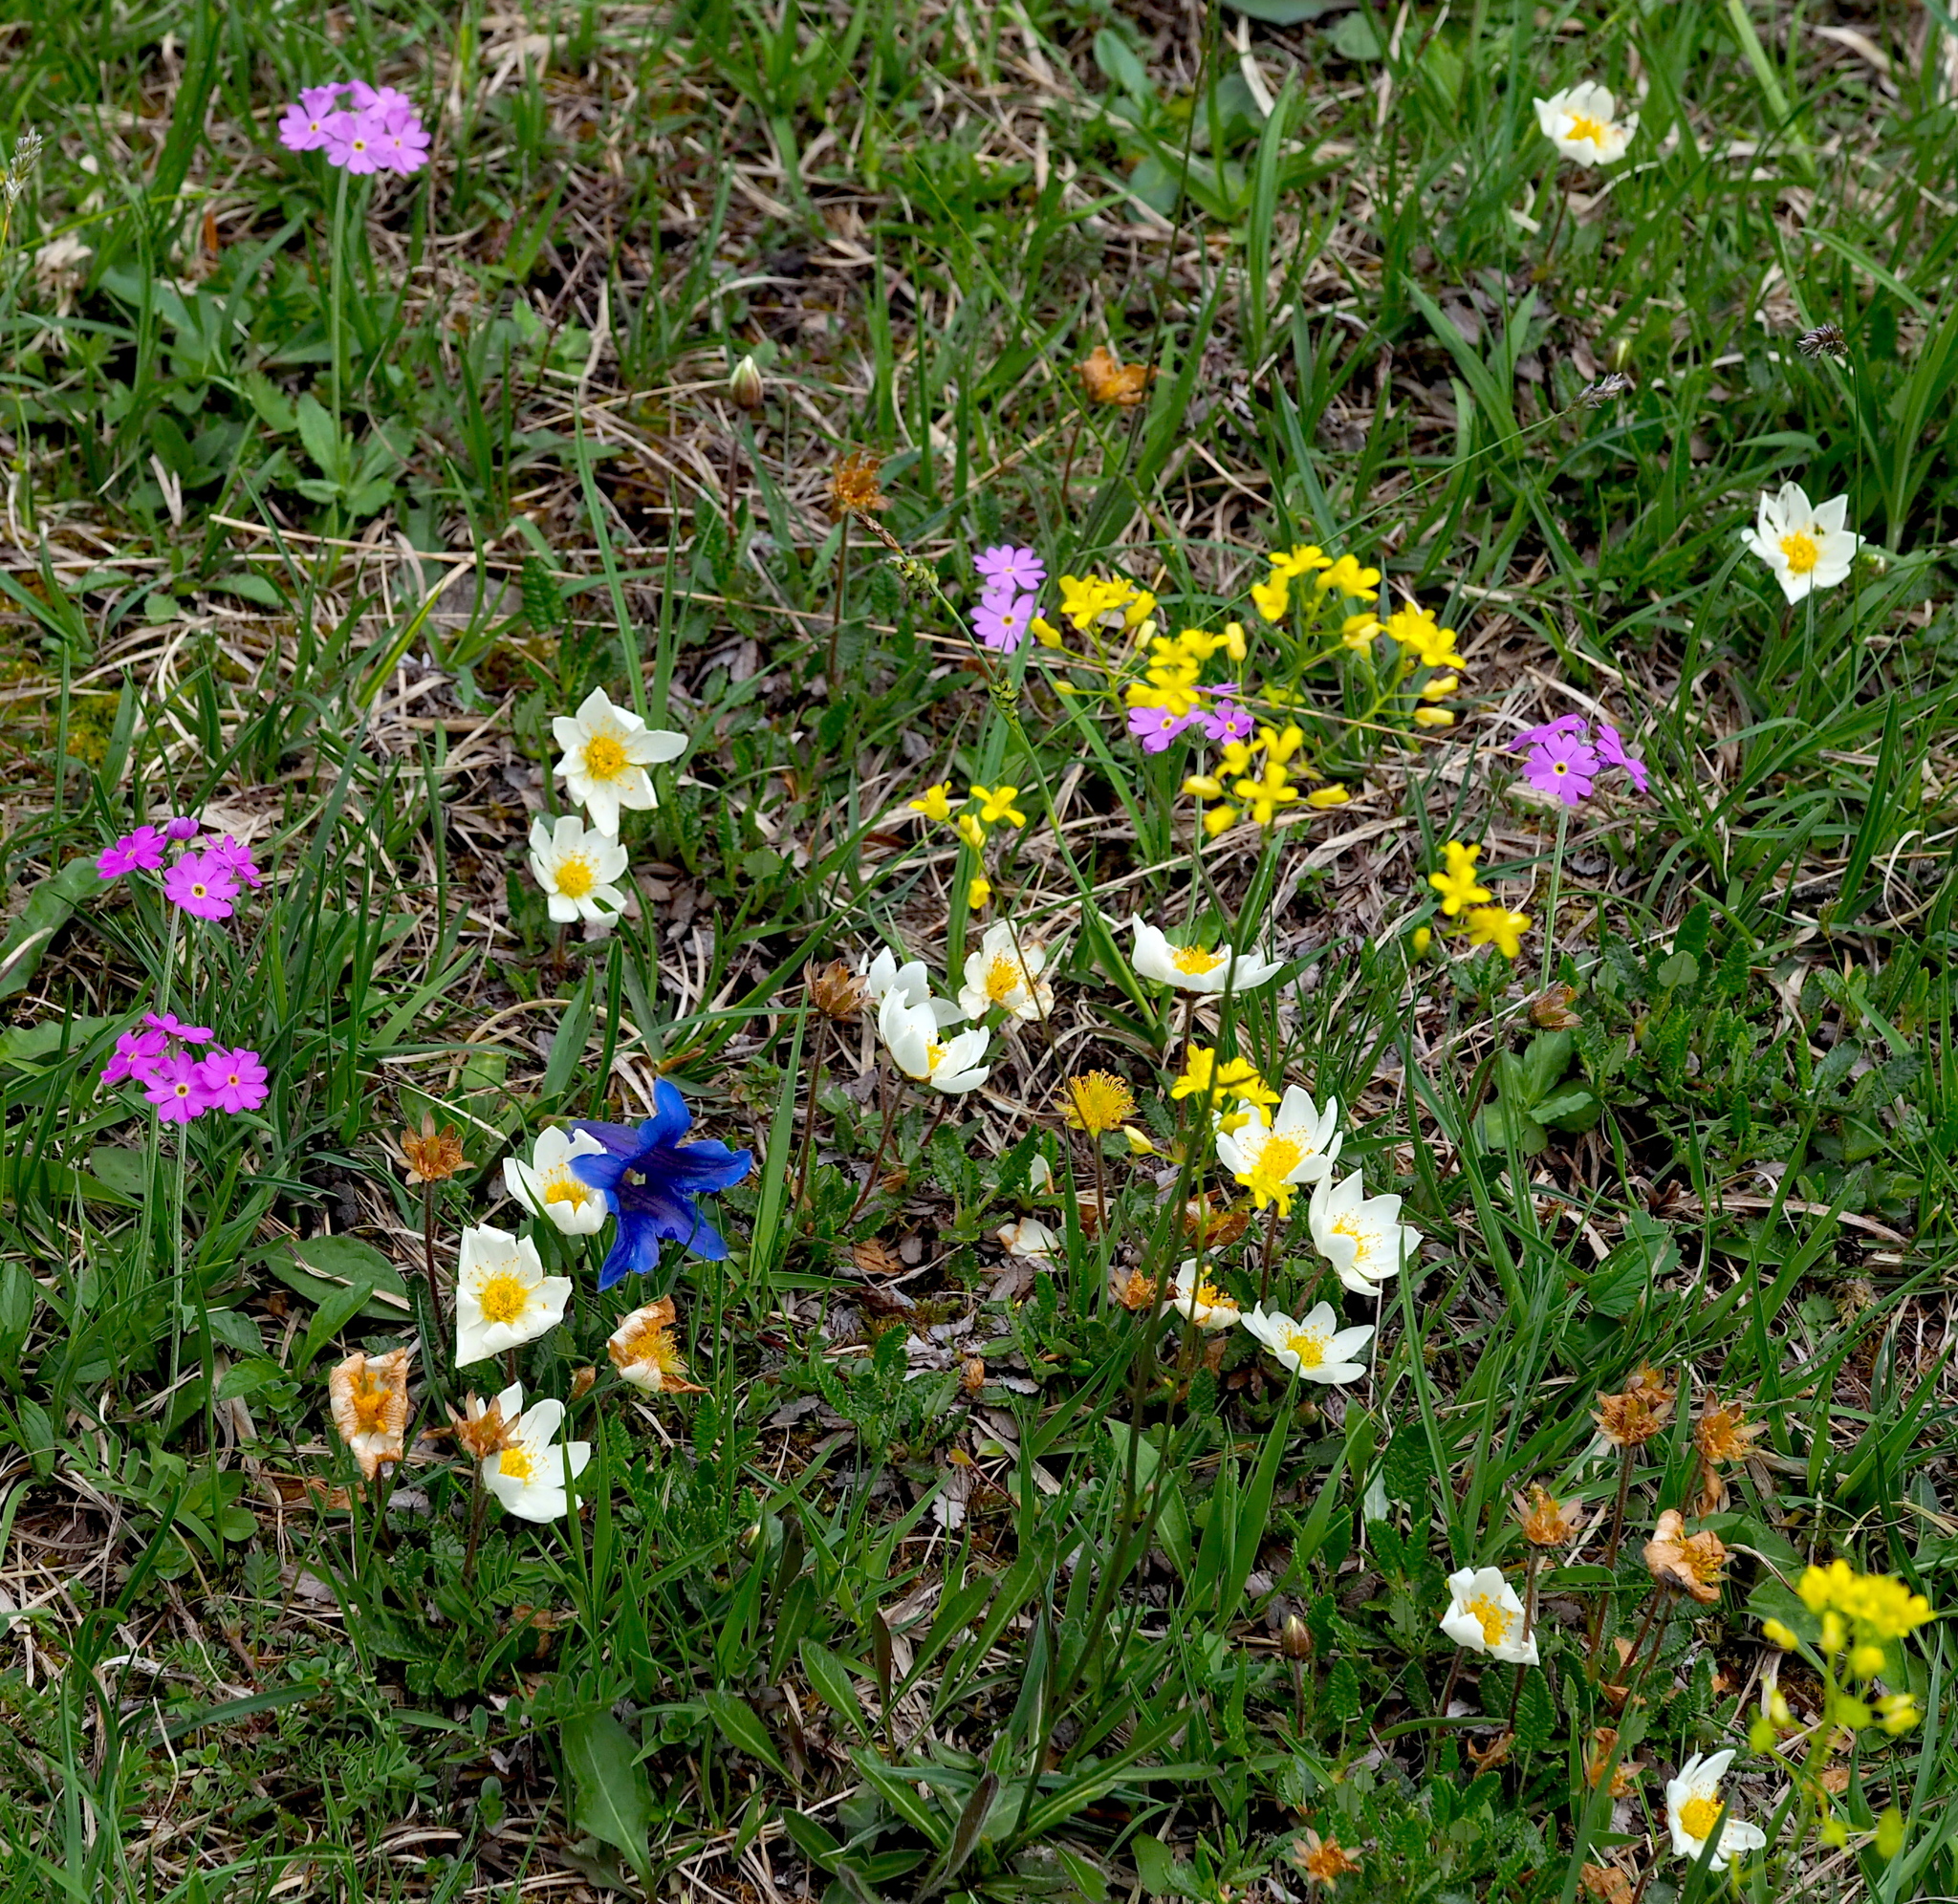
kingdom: Plantae
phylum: Tracheophyta
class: Magnoliopsida
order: Rosales
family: Rosaceae
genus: Dryas
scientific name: Dryas octopetala
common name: Eight-petal mountain-avens
